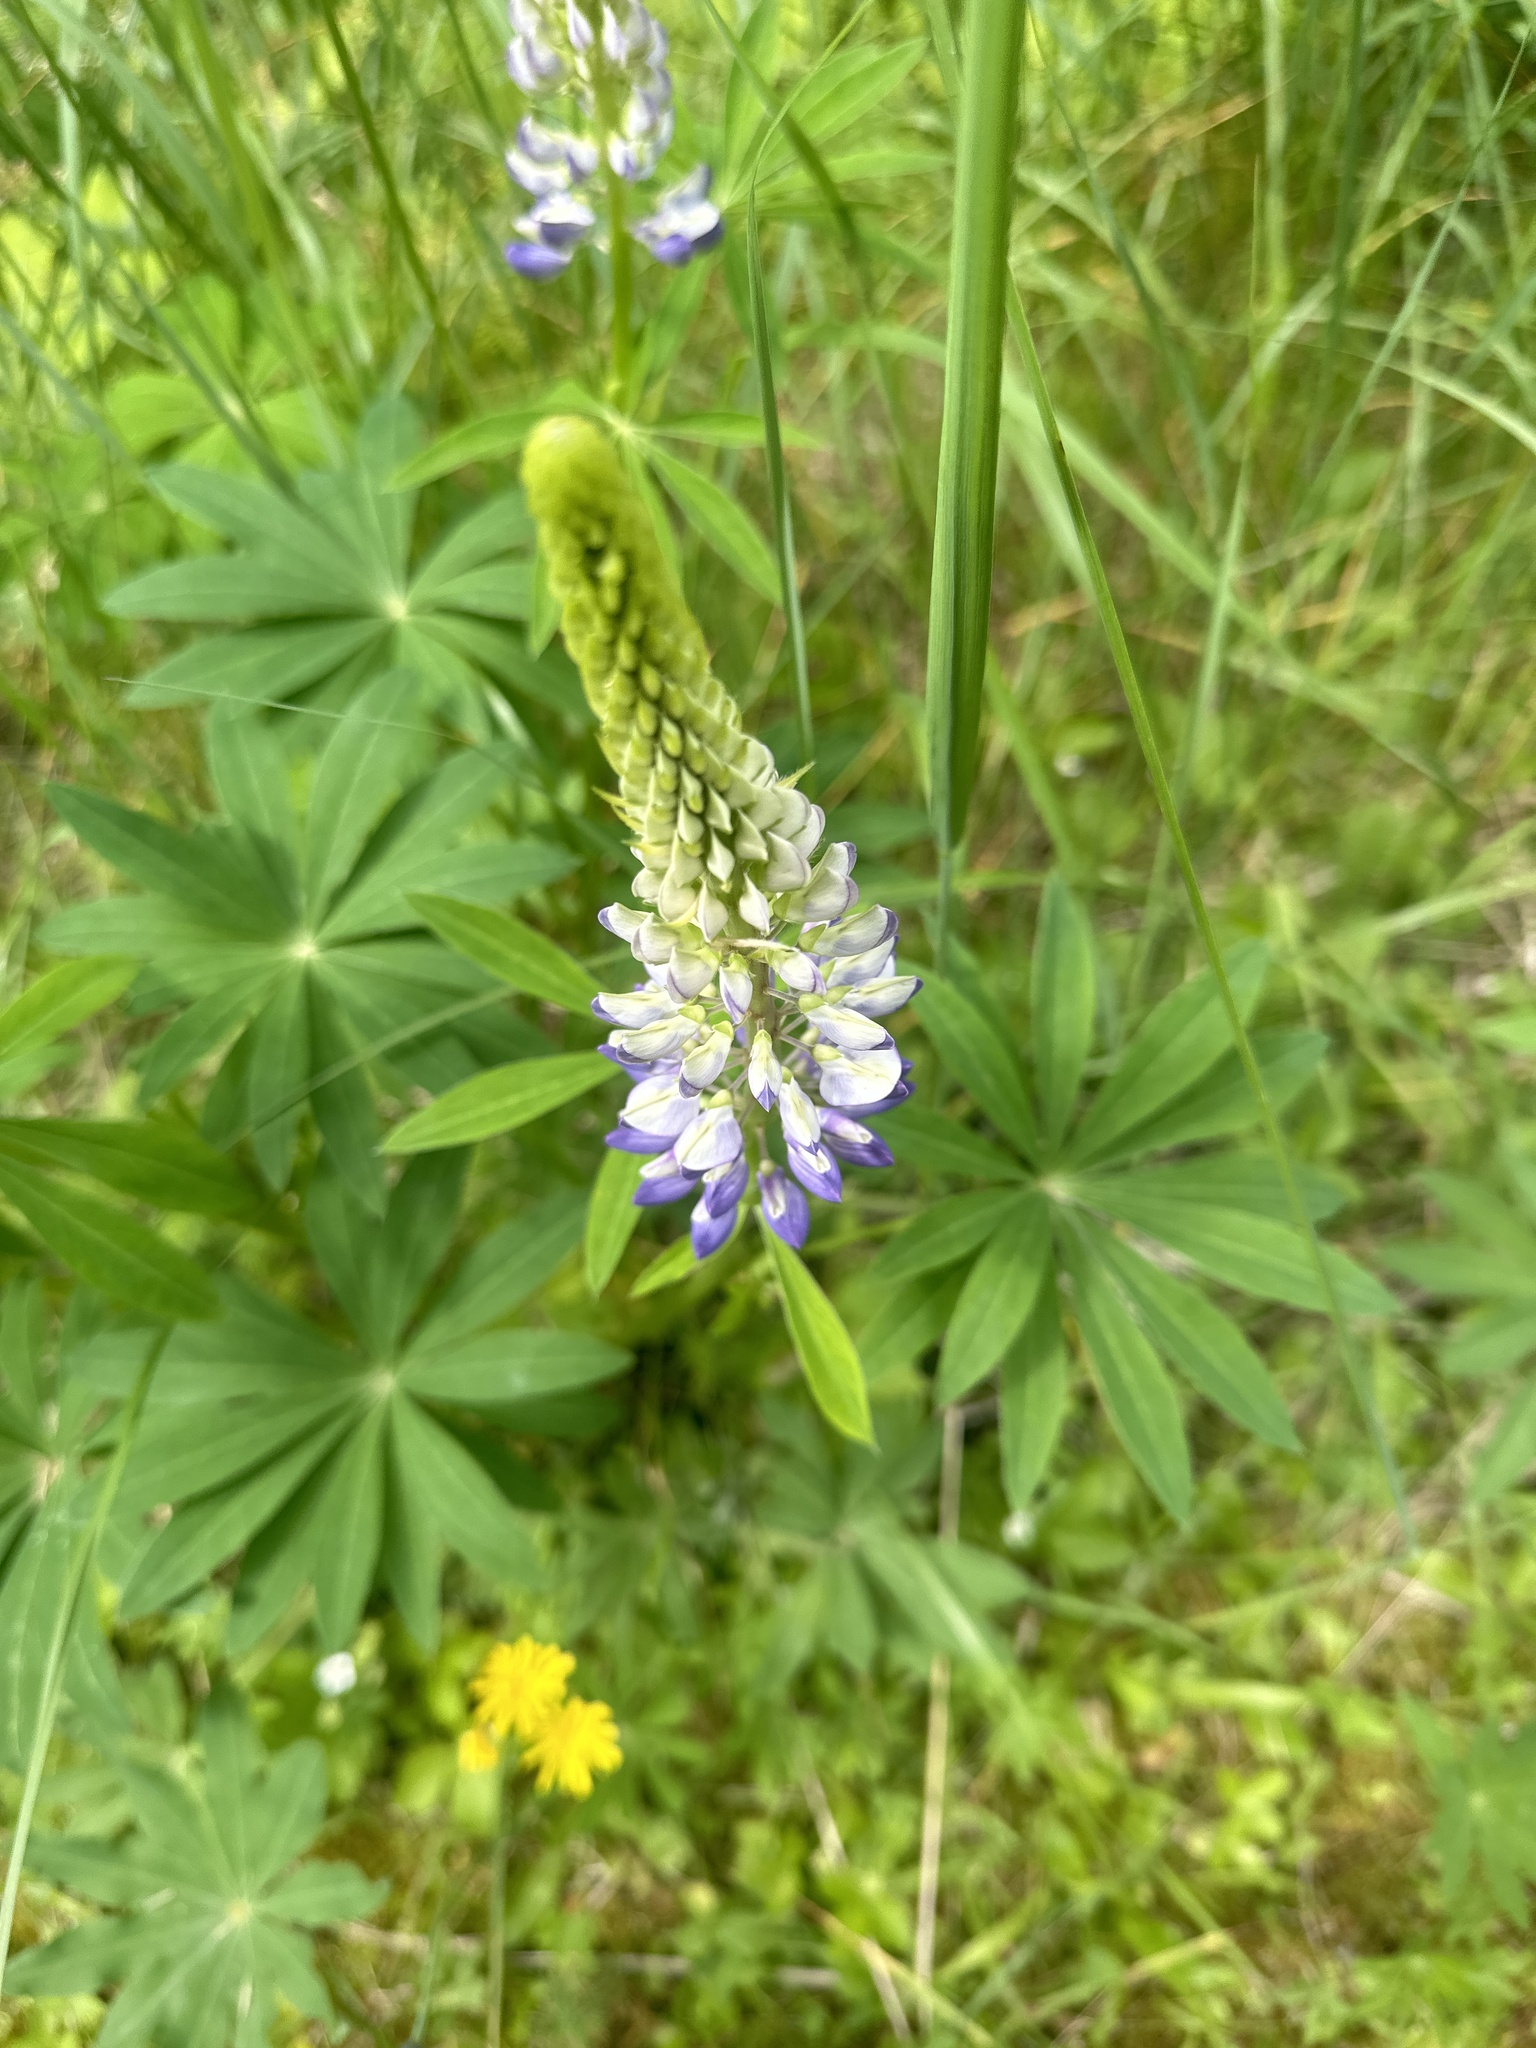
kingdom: Plantae
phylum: Tracheophyta
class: Magnoliopsida
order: Fabales
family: Fabaceae
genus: Lupinus
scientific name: Lupinus polyphyllus
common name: Garden lupin
